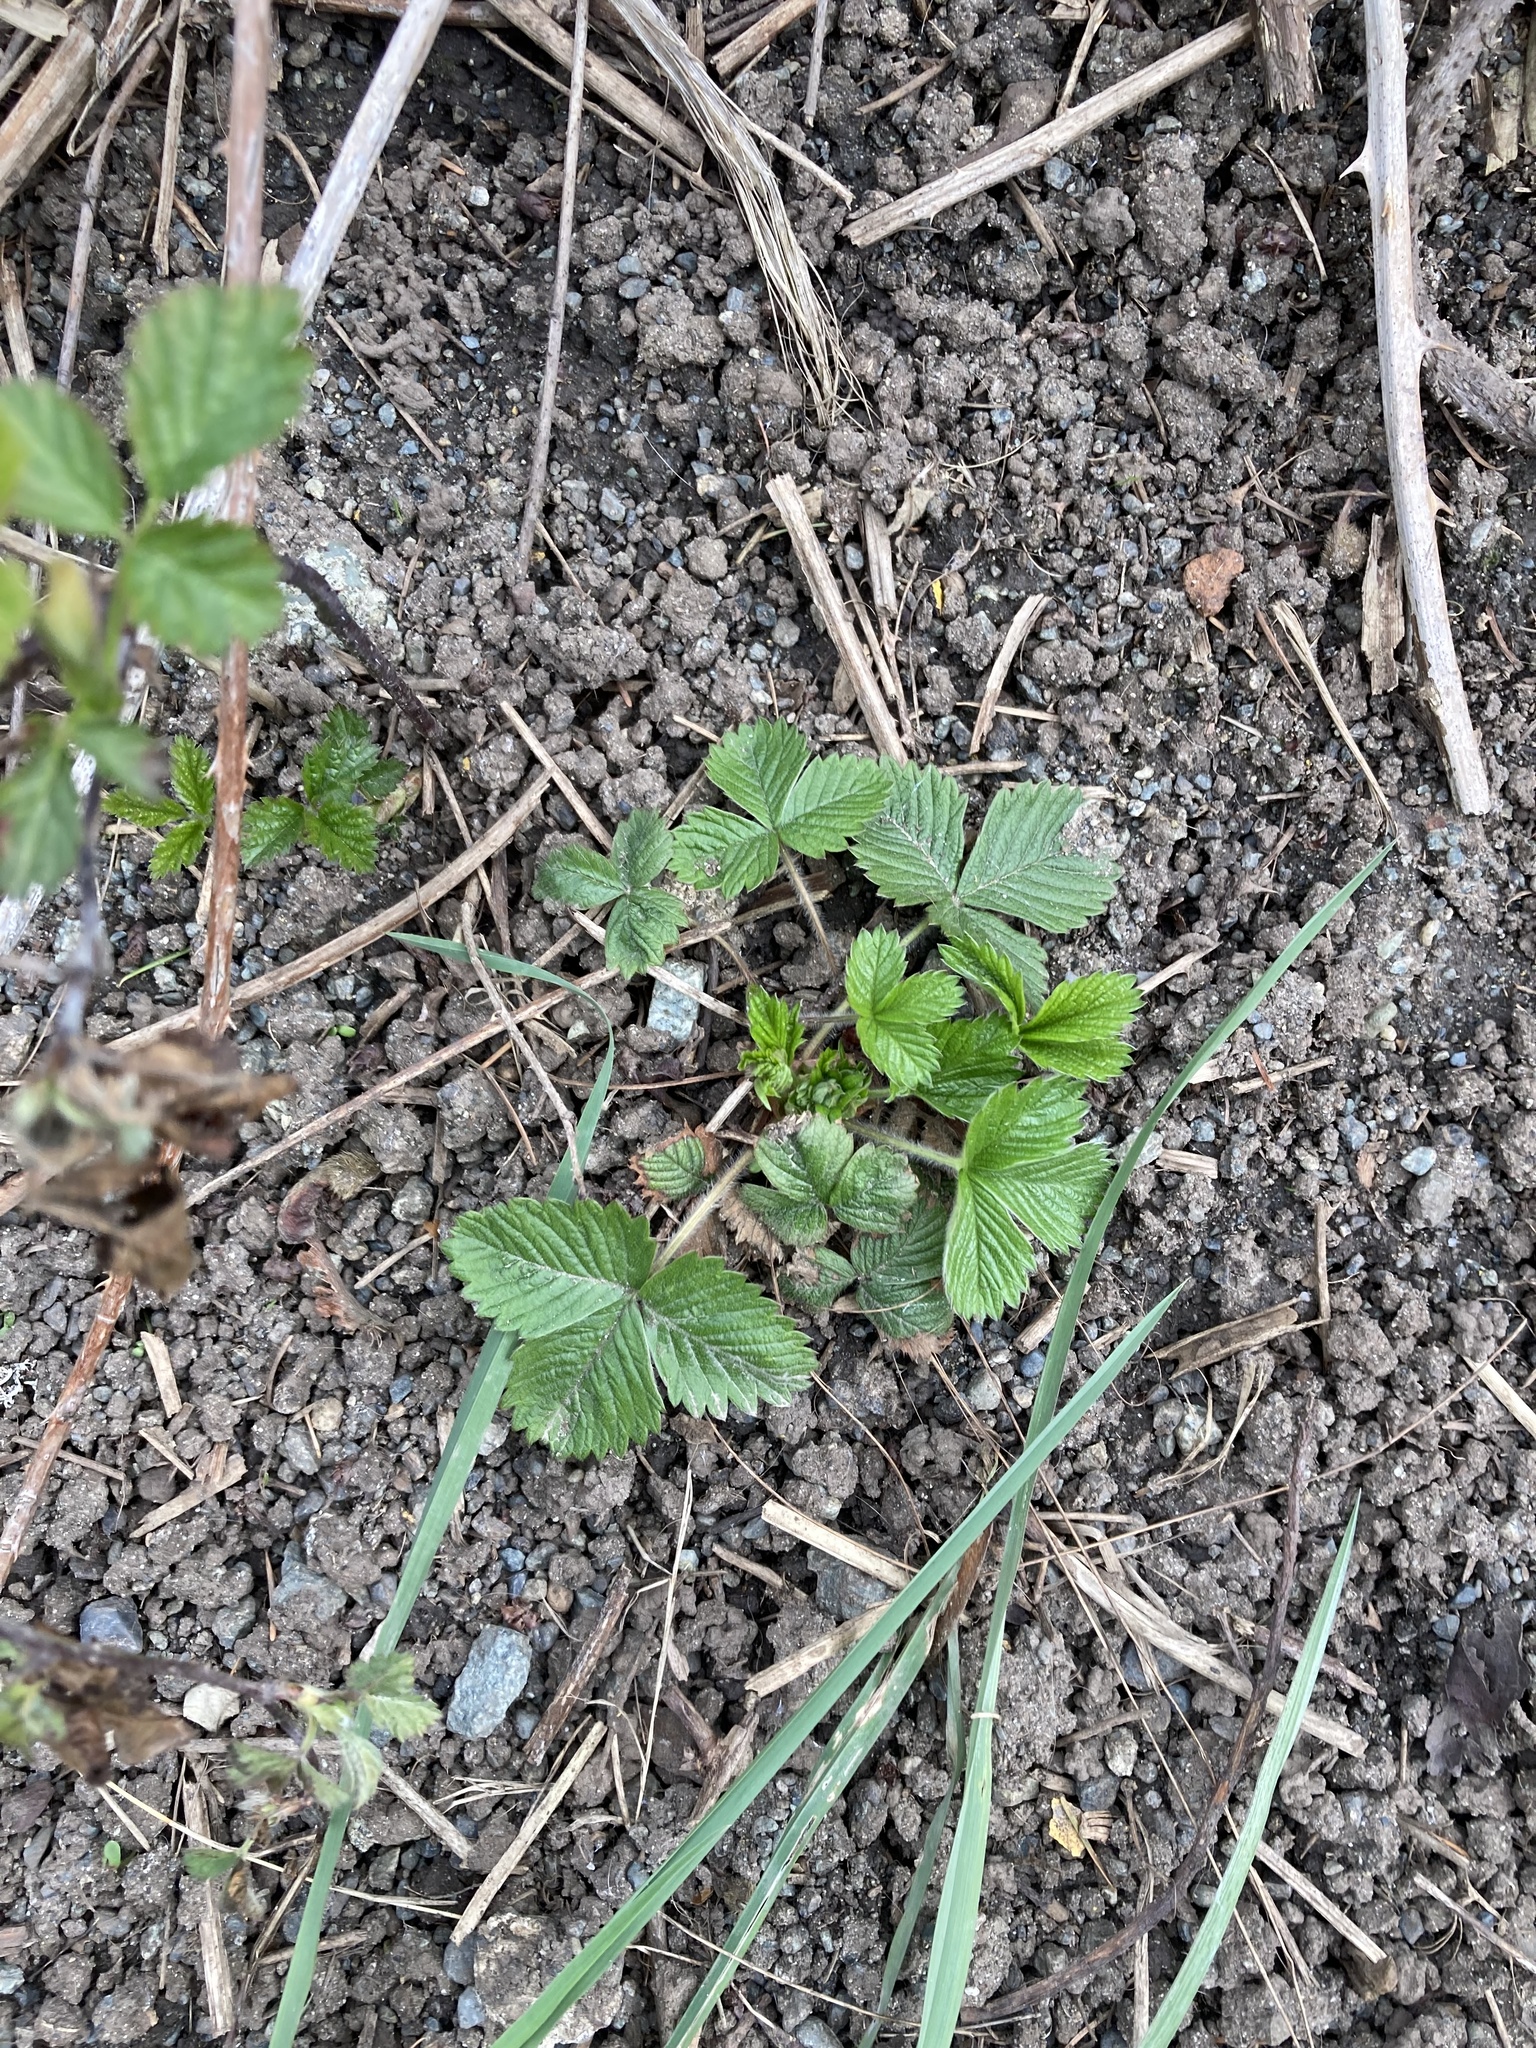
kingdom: Plantae
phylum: Tracheophyta
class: Magnoliopsida
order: Rosales
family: Rosaceae
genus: Fragaria
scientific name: Fragaria vesca
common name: Wild strawberry
